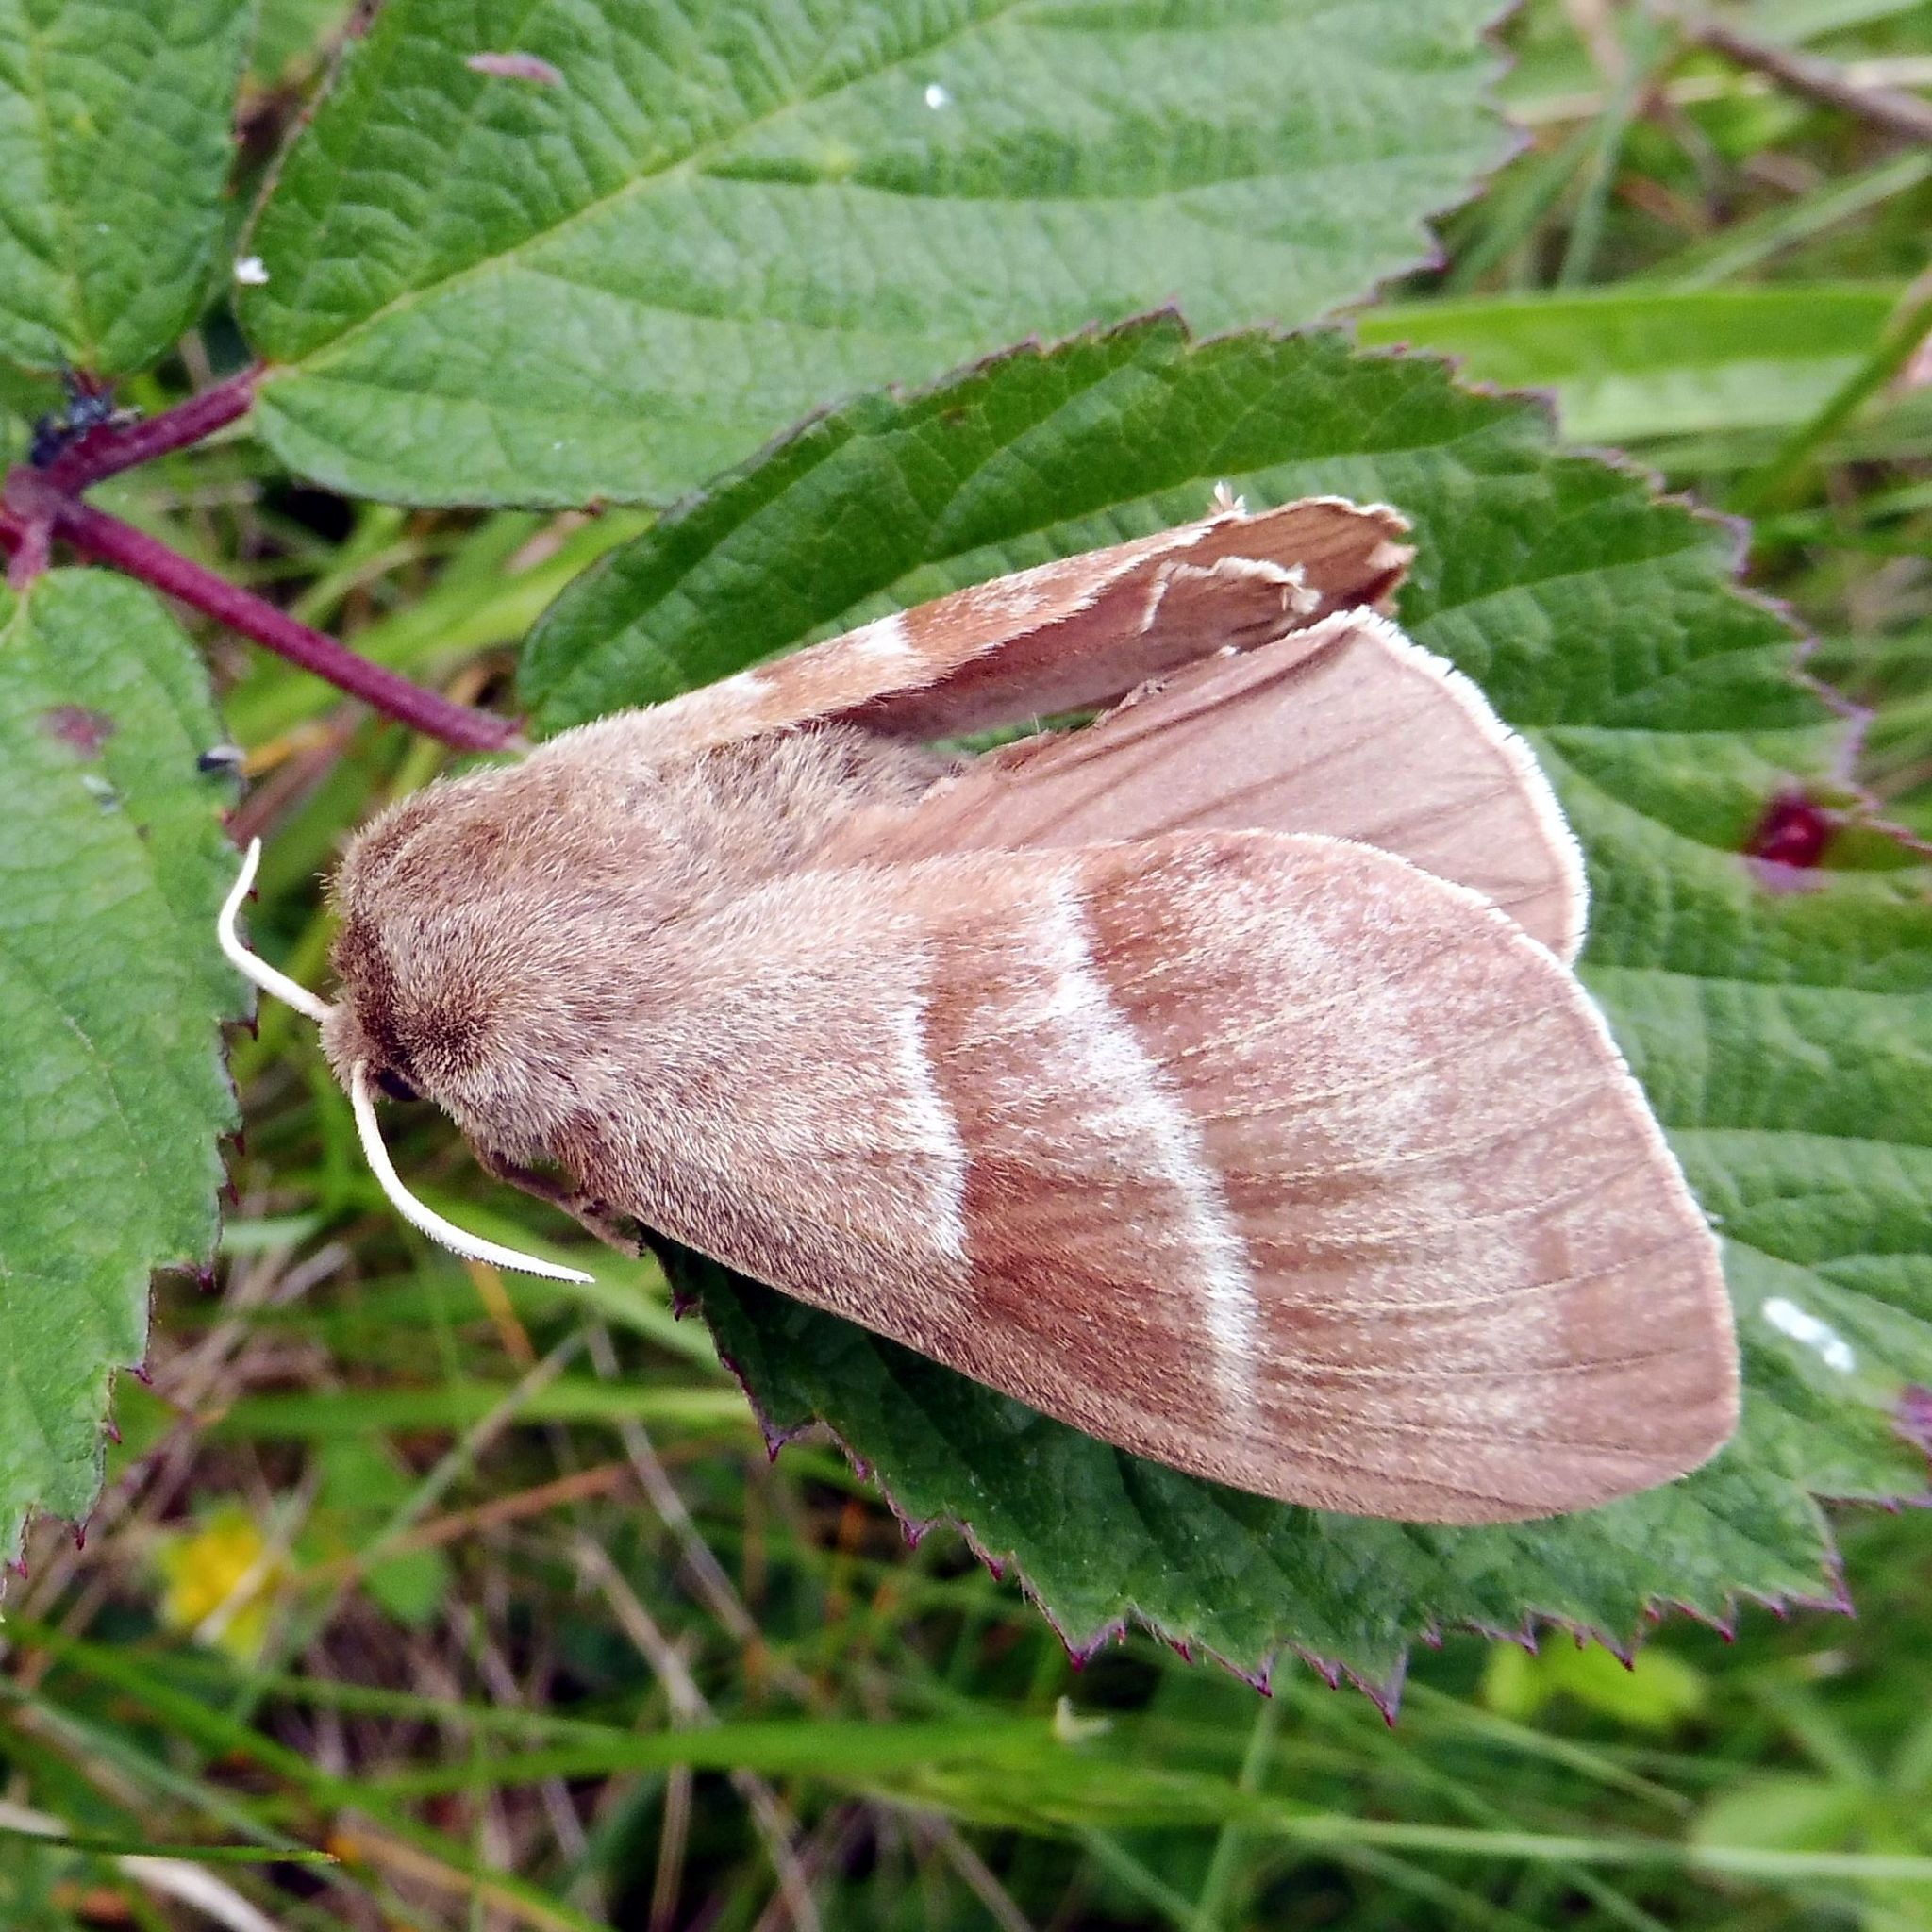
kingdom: Animalia
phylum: Arthropoda
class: Insecta
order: Lepidoptera
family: Lasiocampidae
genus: Macrothylacia
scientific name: Macrothylacia rubi
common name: Fox moth
